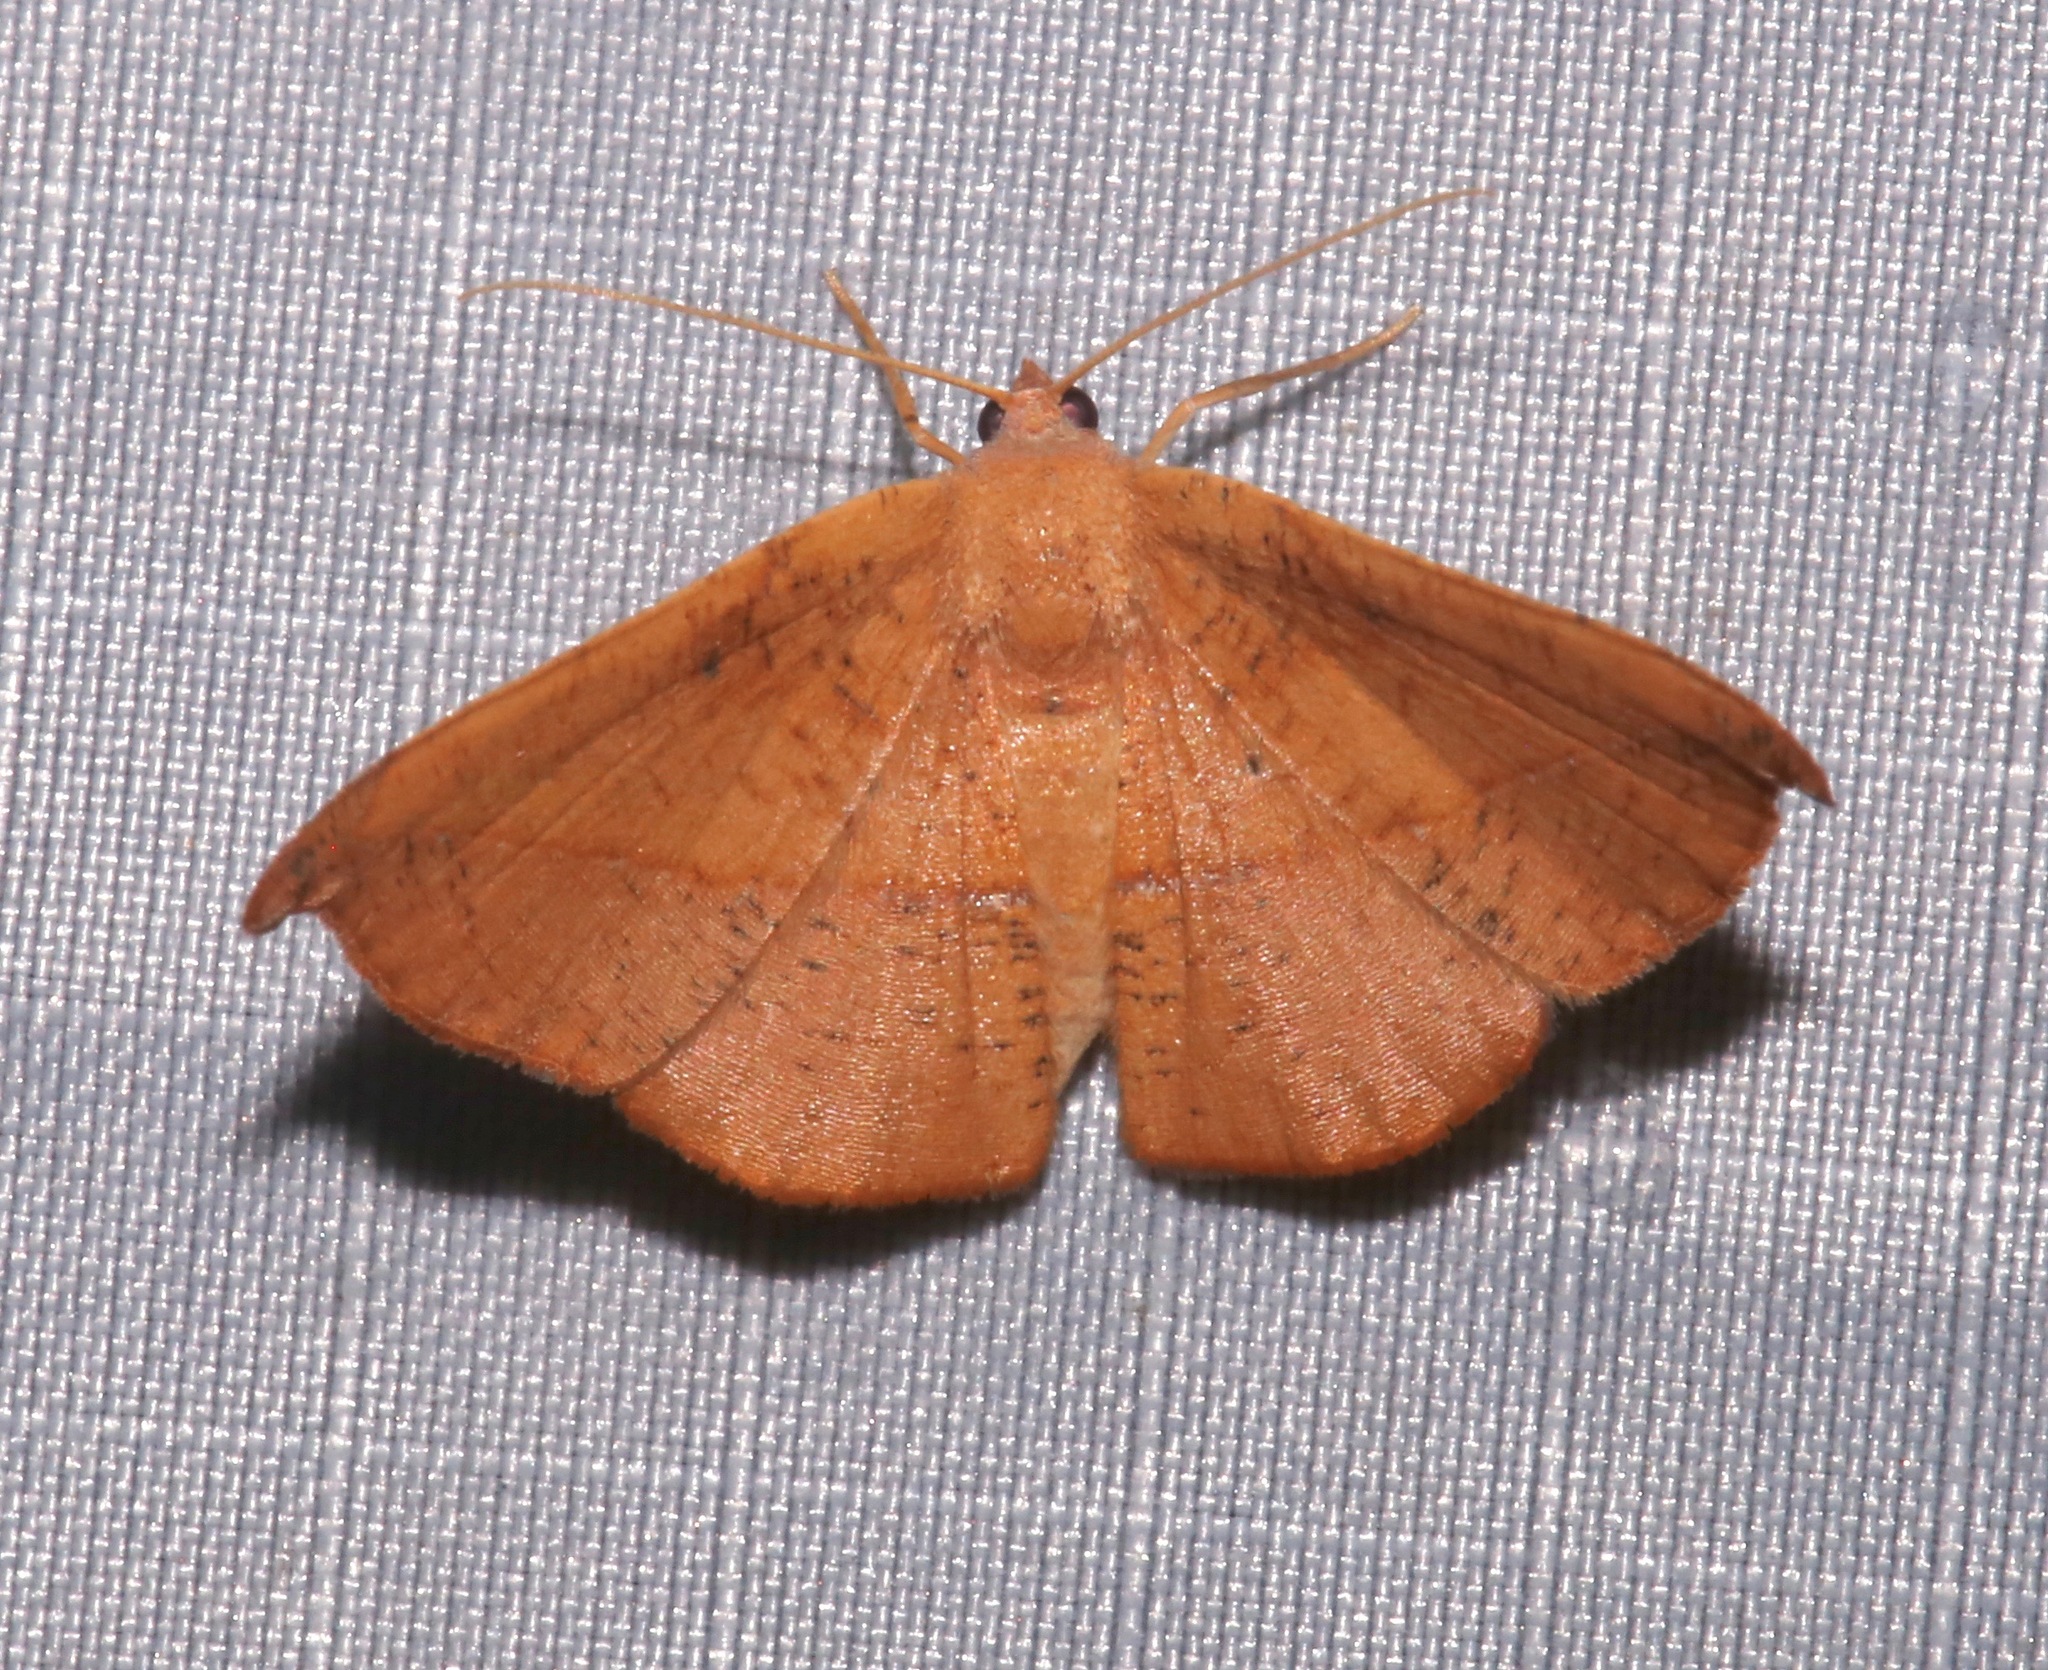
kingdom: Animalia
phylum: Arthropoda
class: Insecta
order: Lepidoptera
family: Geometridae
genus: Patalene
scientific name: Patalene olyzonaria
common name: Juniper geometer moth
